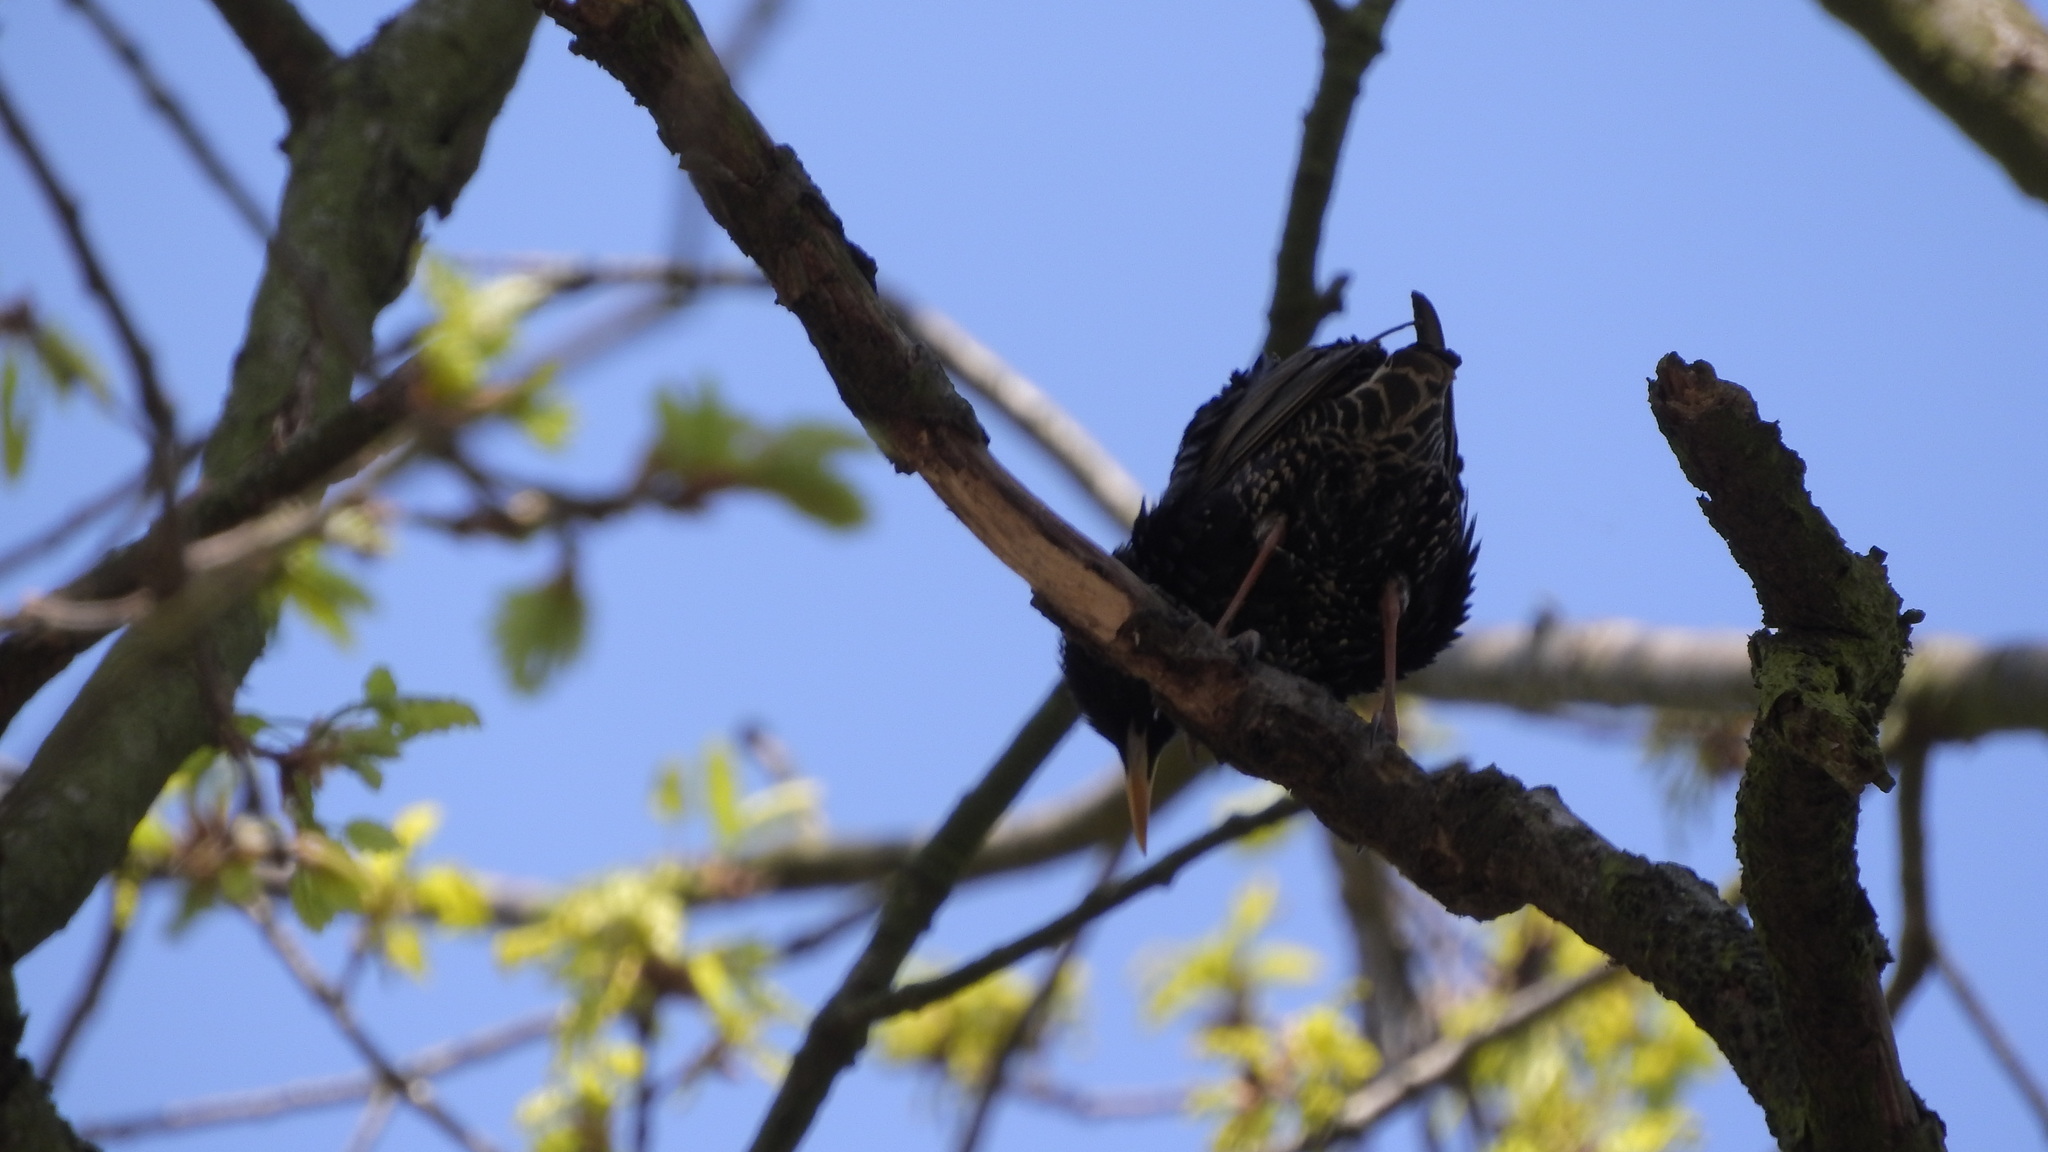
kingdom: Animalia
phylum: Chordata
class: Aves
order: Passeriformes
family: Sturnidae
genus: Sturnus
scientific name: Sturnus vulgaris
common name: Common starling
